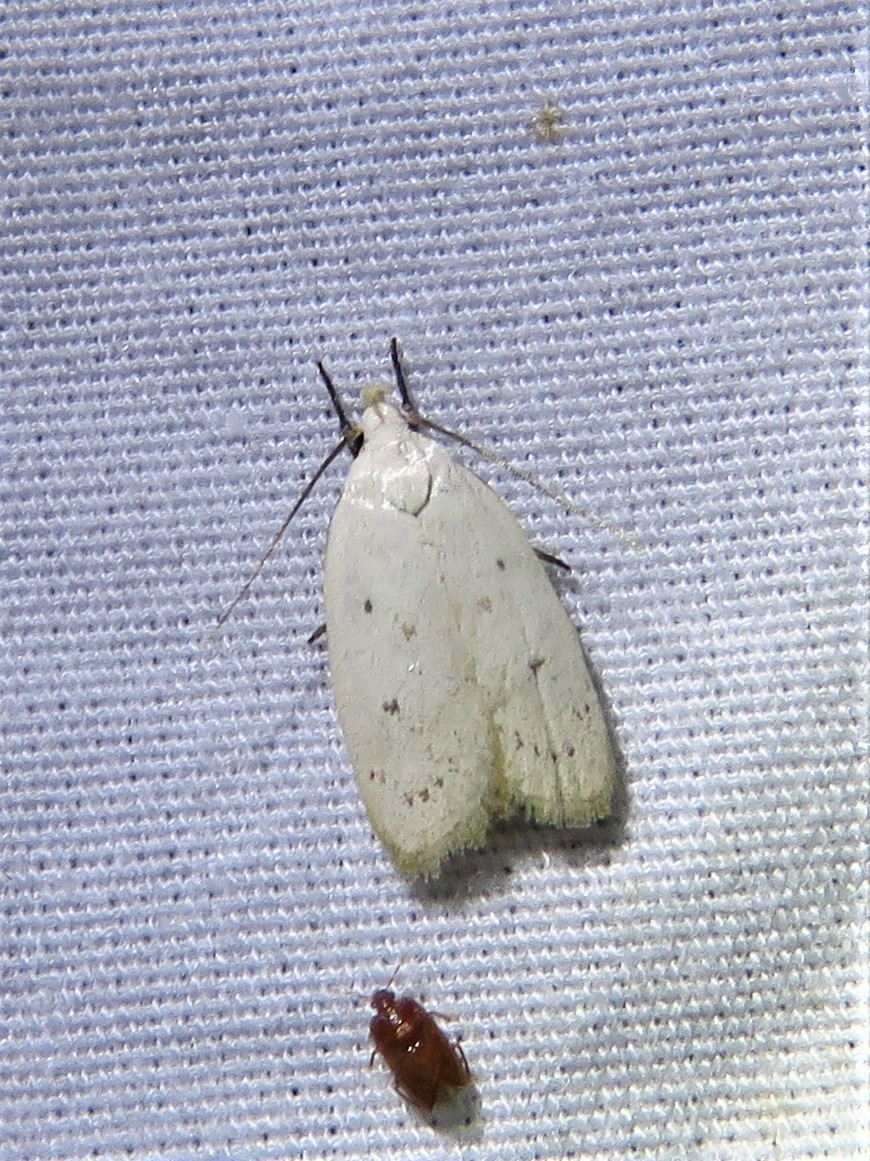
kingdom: Animalia
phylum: Arthropoda
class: Insecta
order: Lepidoptera
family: Oecophoridae
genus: Inga
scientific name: Inga cretacea
